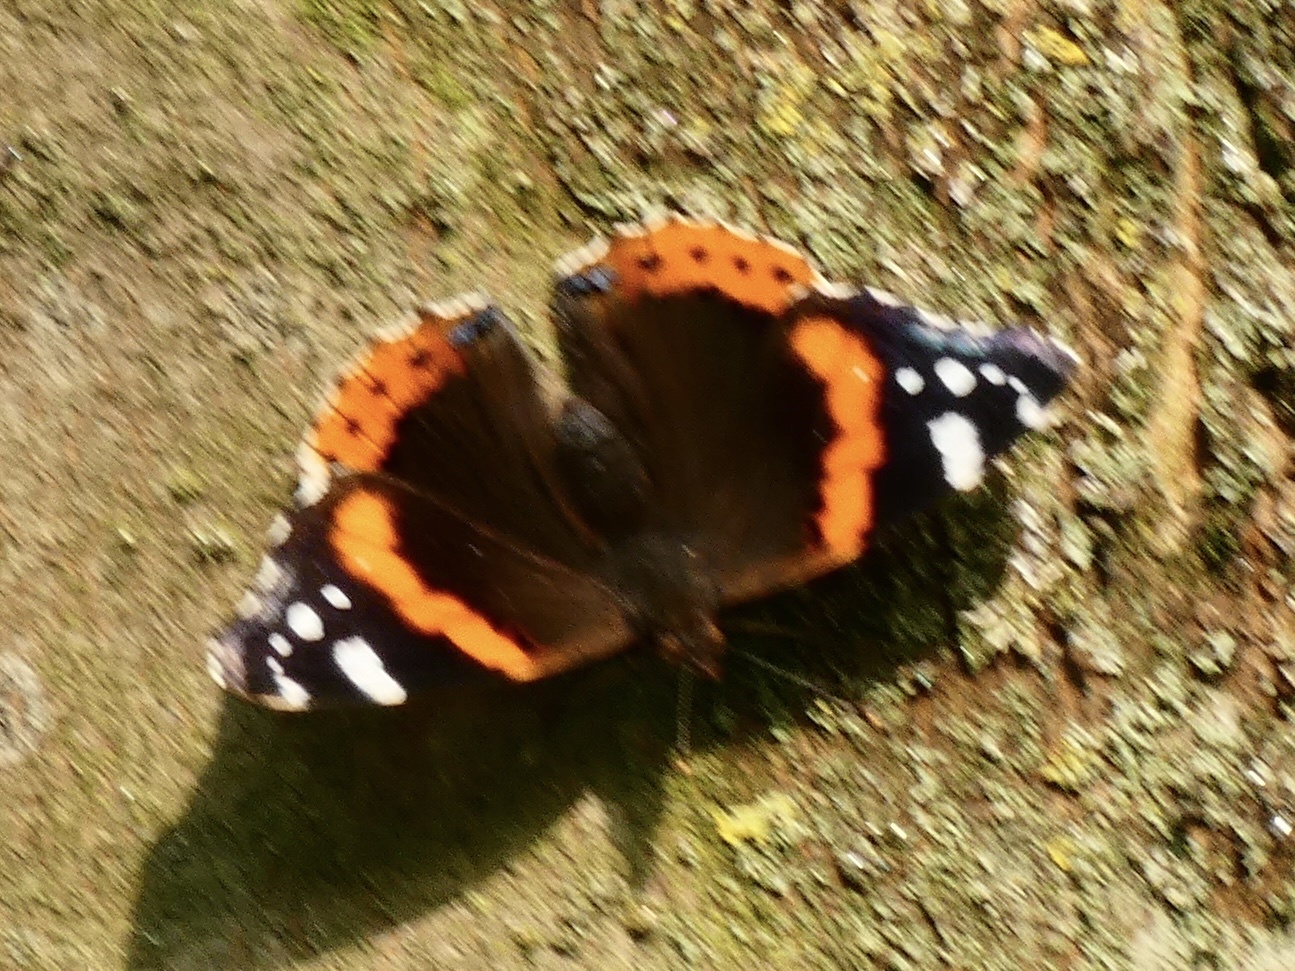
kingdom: Animalia
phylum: Arthropoda
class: Insecta
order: Lepidoptera
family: Nymphalidae
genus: Vanessa
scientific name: Vanessa atalanta
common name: Red admiral
